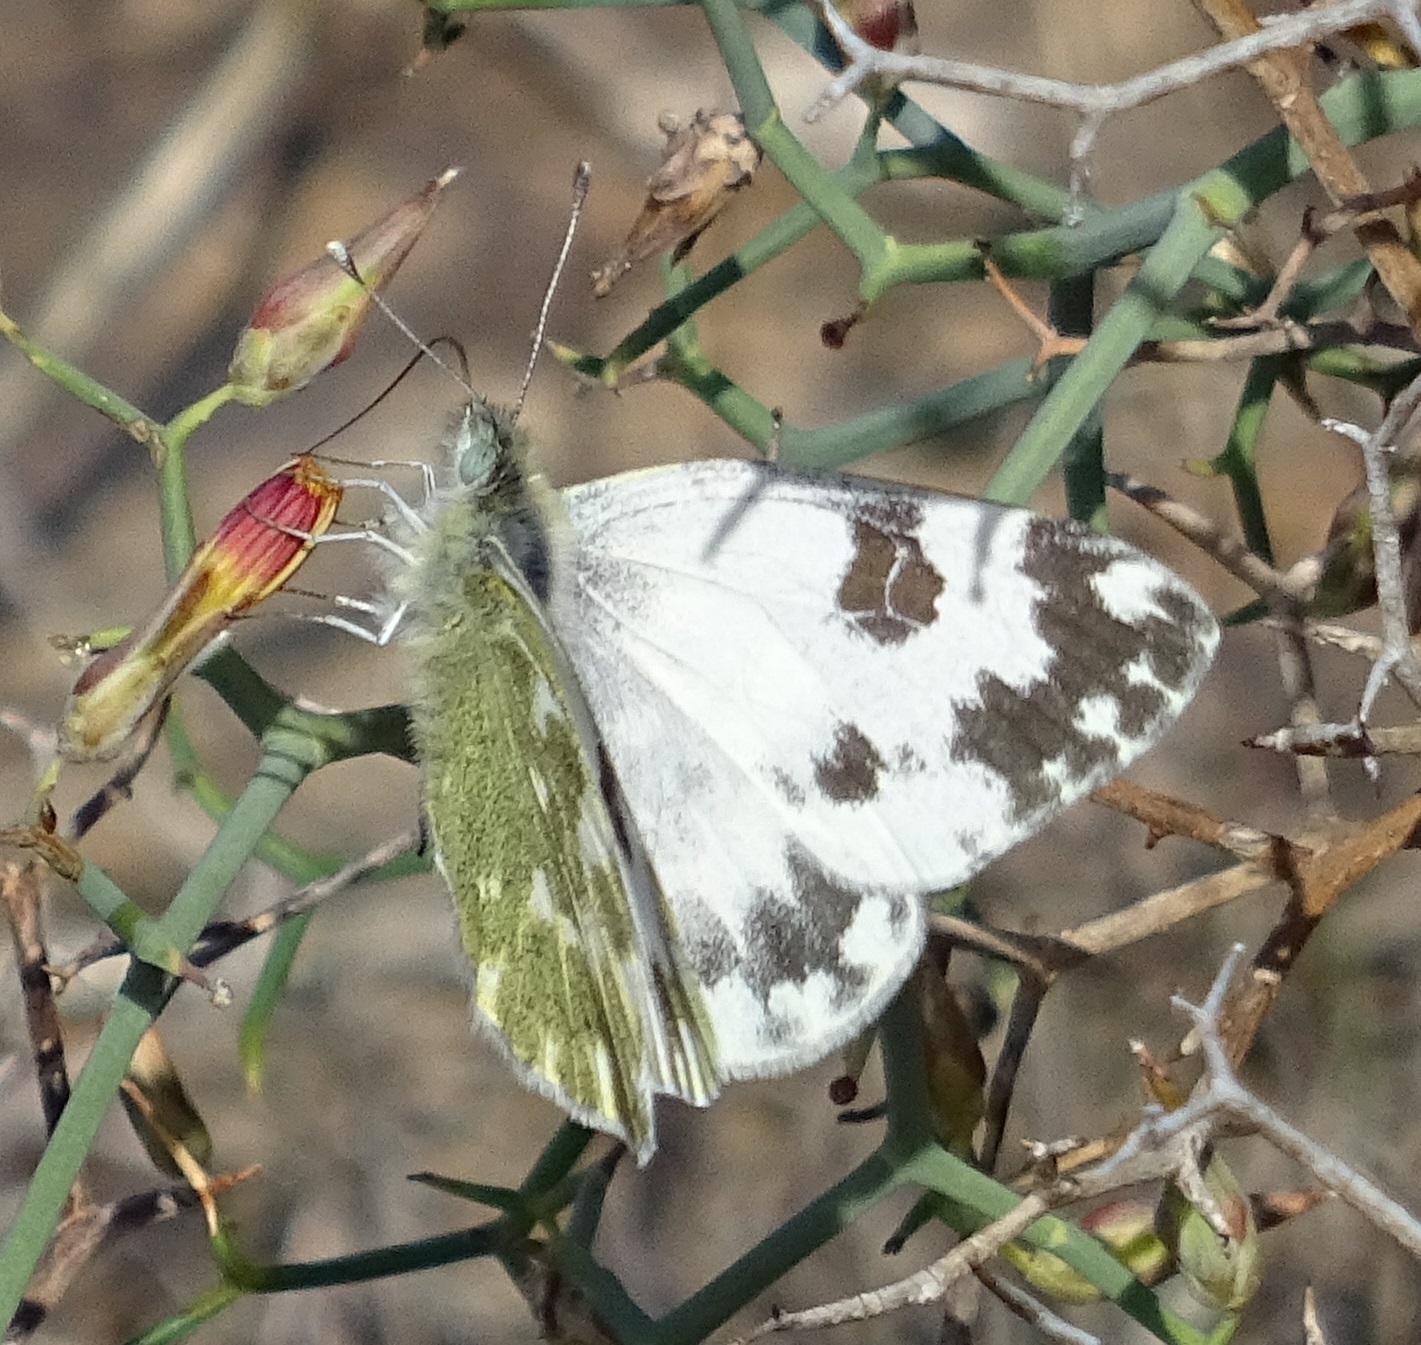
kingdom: Animalia
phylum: Arthropoda
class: Insecta
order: Lepidoptera
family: Pieridae
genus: Pontia
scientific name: Pontia daplidice
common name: Bath white
